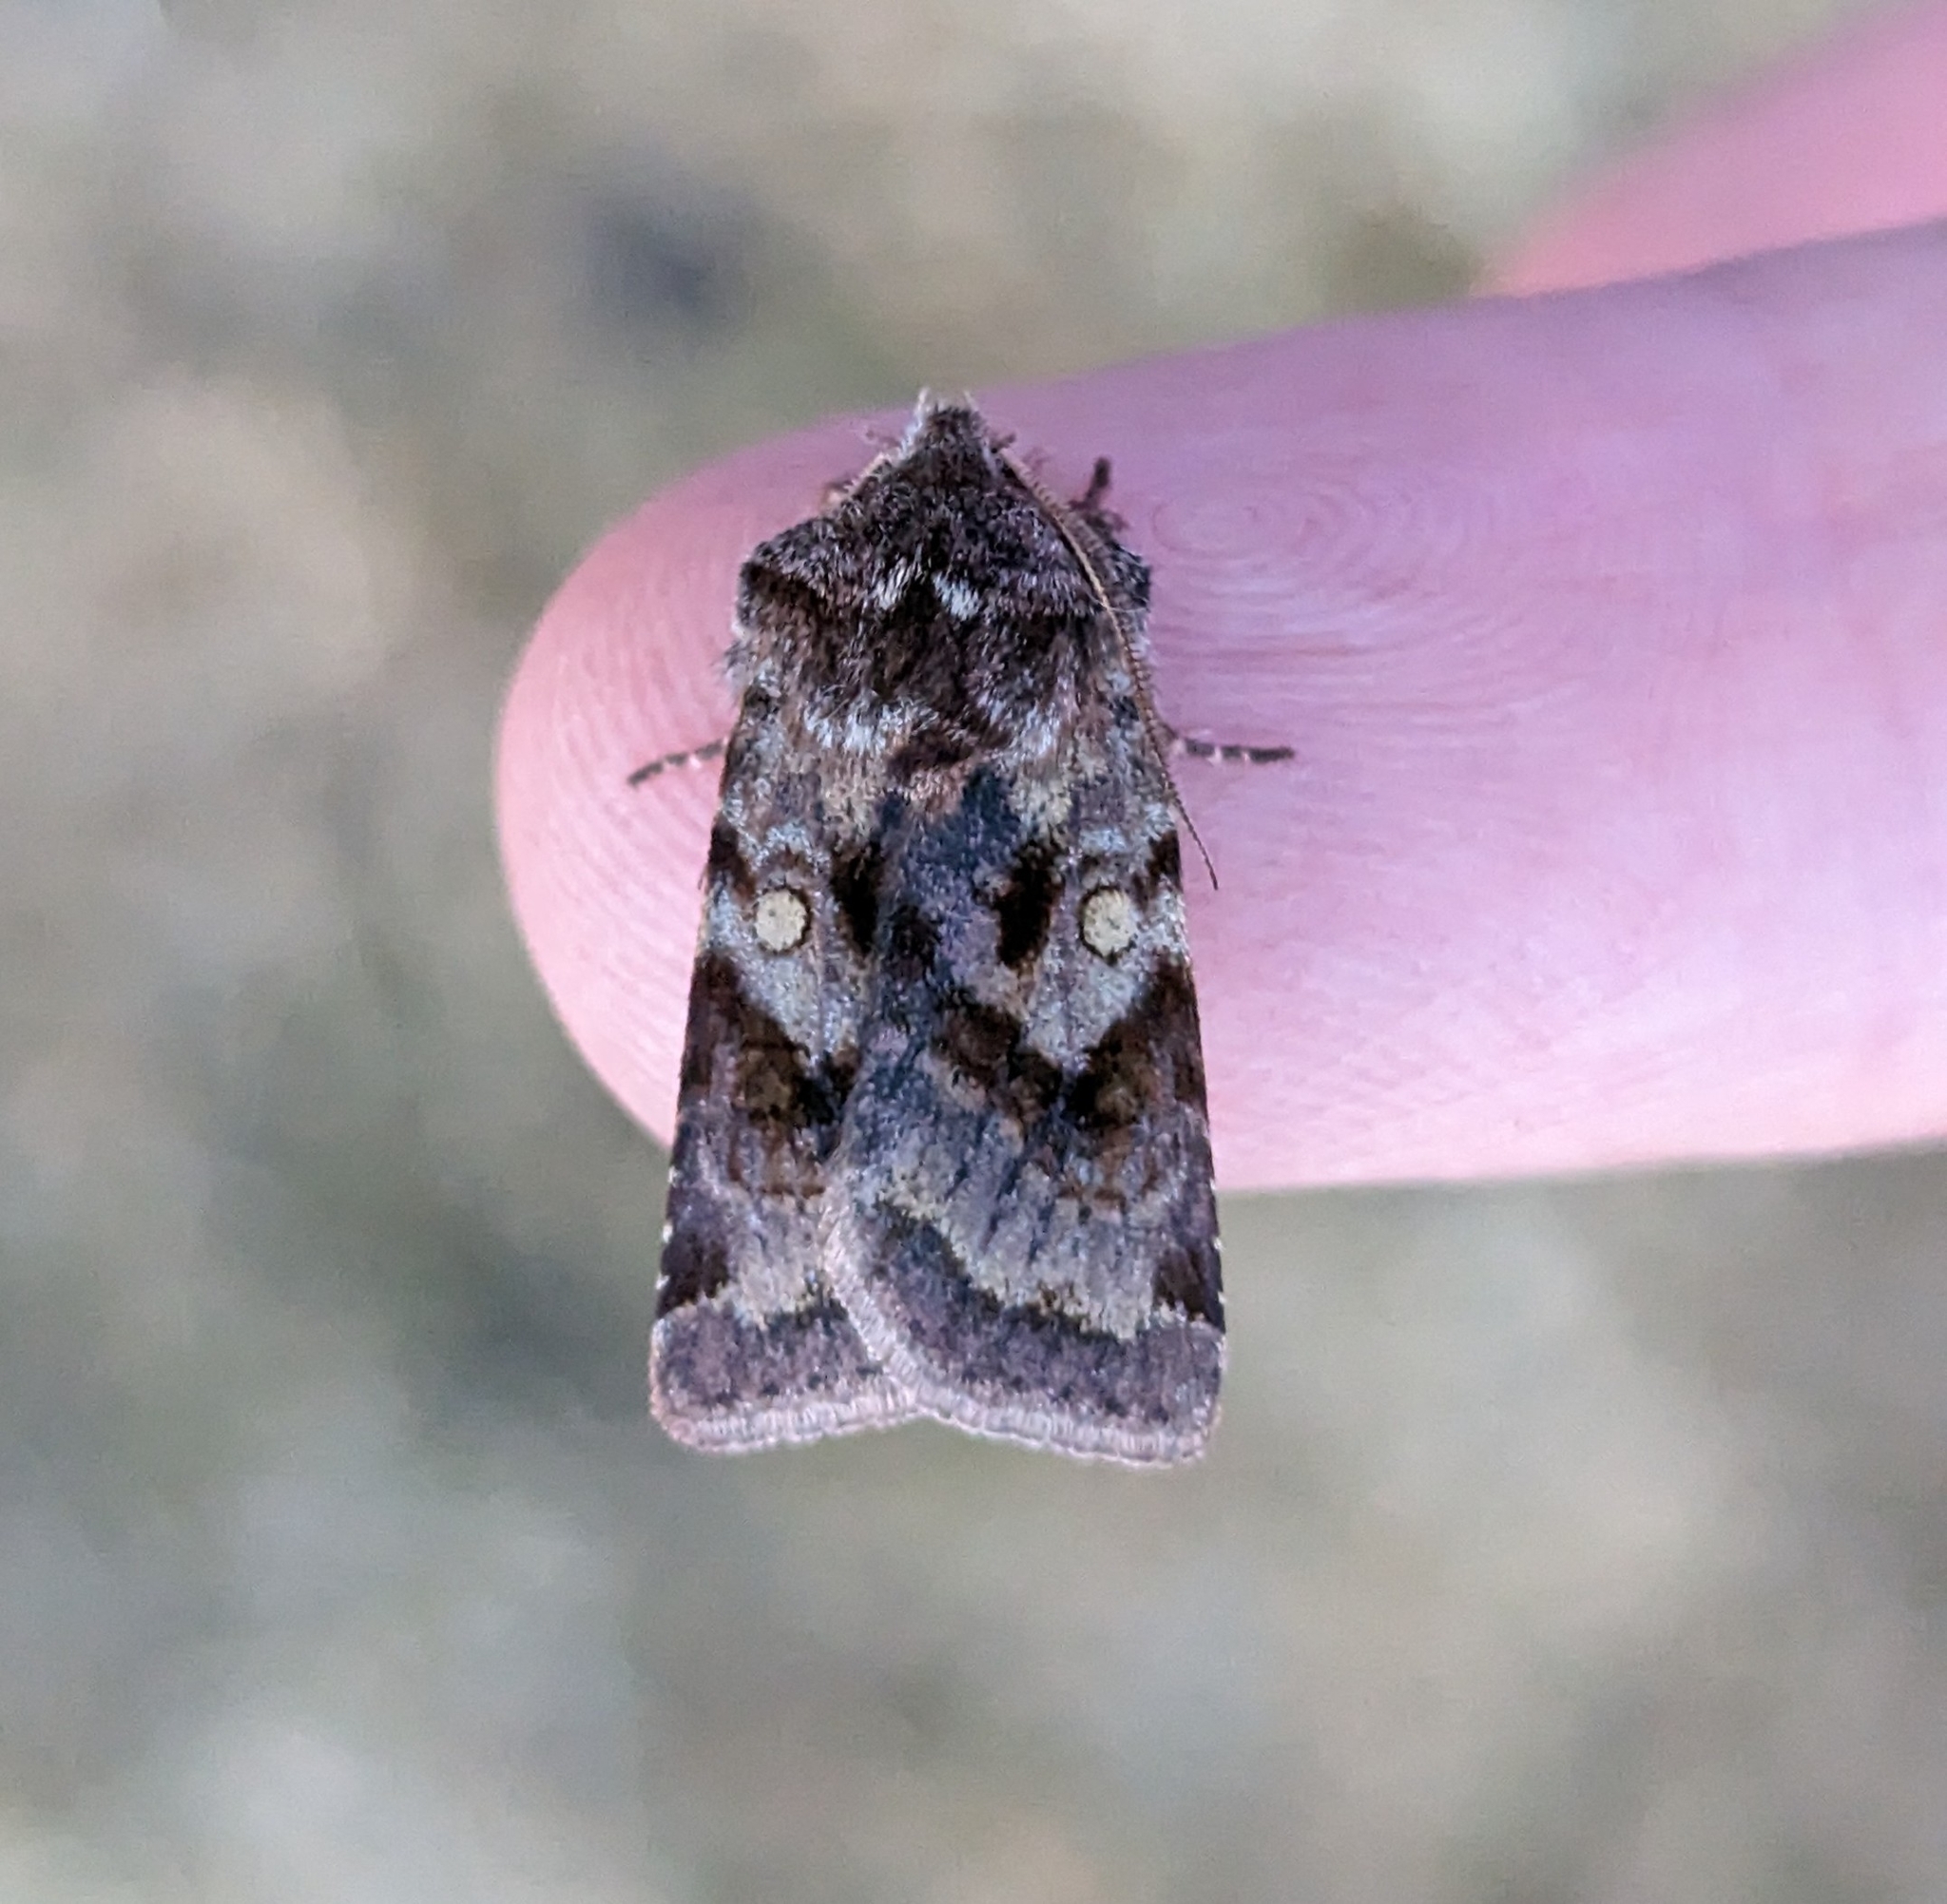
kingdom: Animalia
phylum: Arthropoda
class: Insecta
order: Lepidoptera
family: Noctuidae
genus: Cerastis
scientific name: Cerastis salicarum
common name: Willow dart
